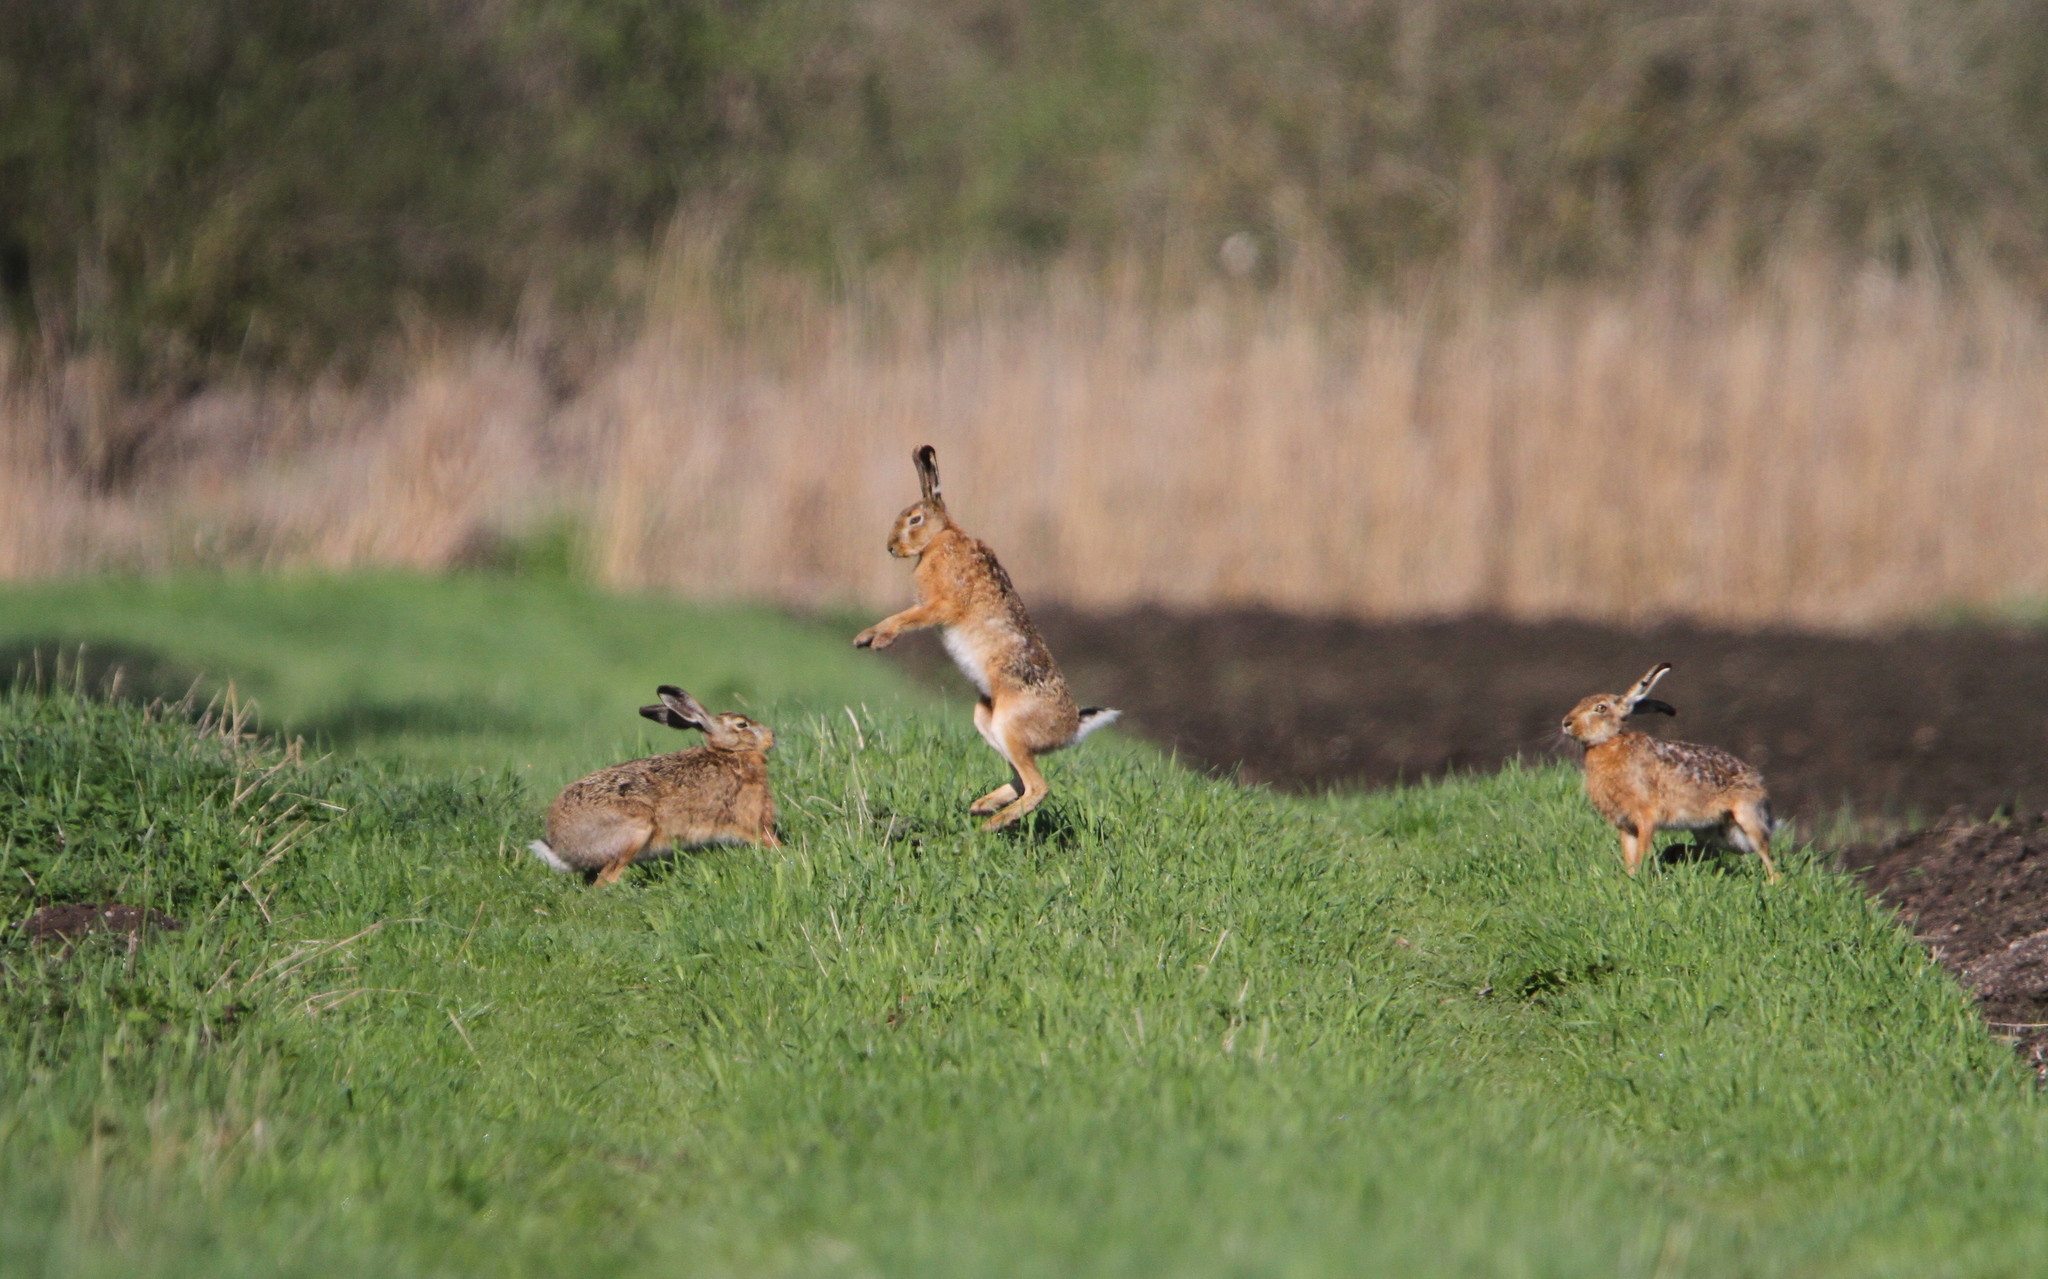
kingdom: Animalia
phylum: Chordata
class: Mammalia
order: Lagomorpha
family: Leporidae
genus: Lepus
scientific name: Lepus europaeus
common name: European hare
